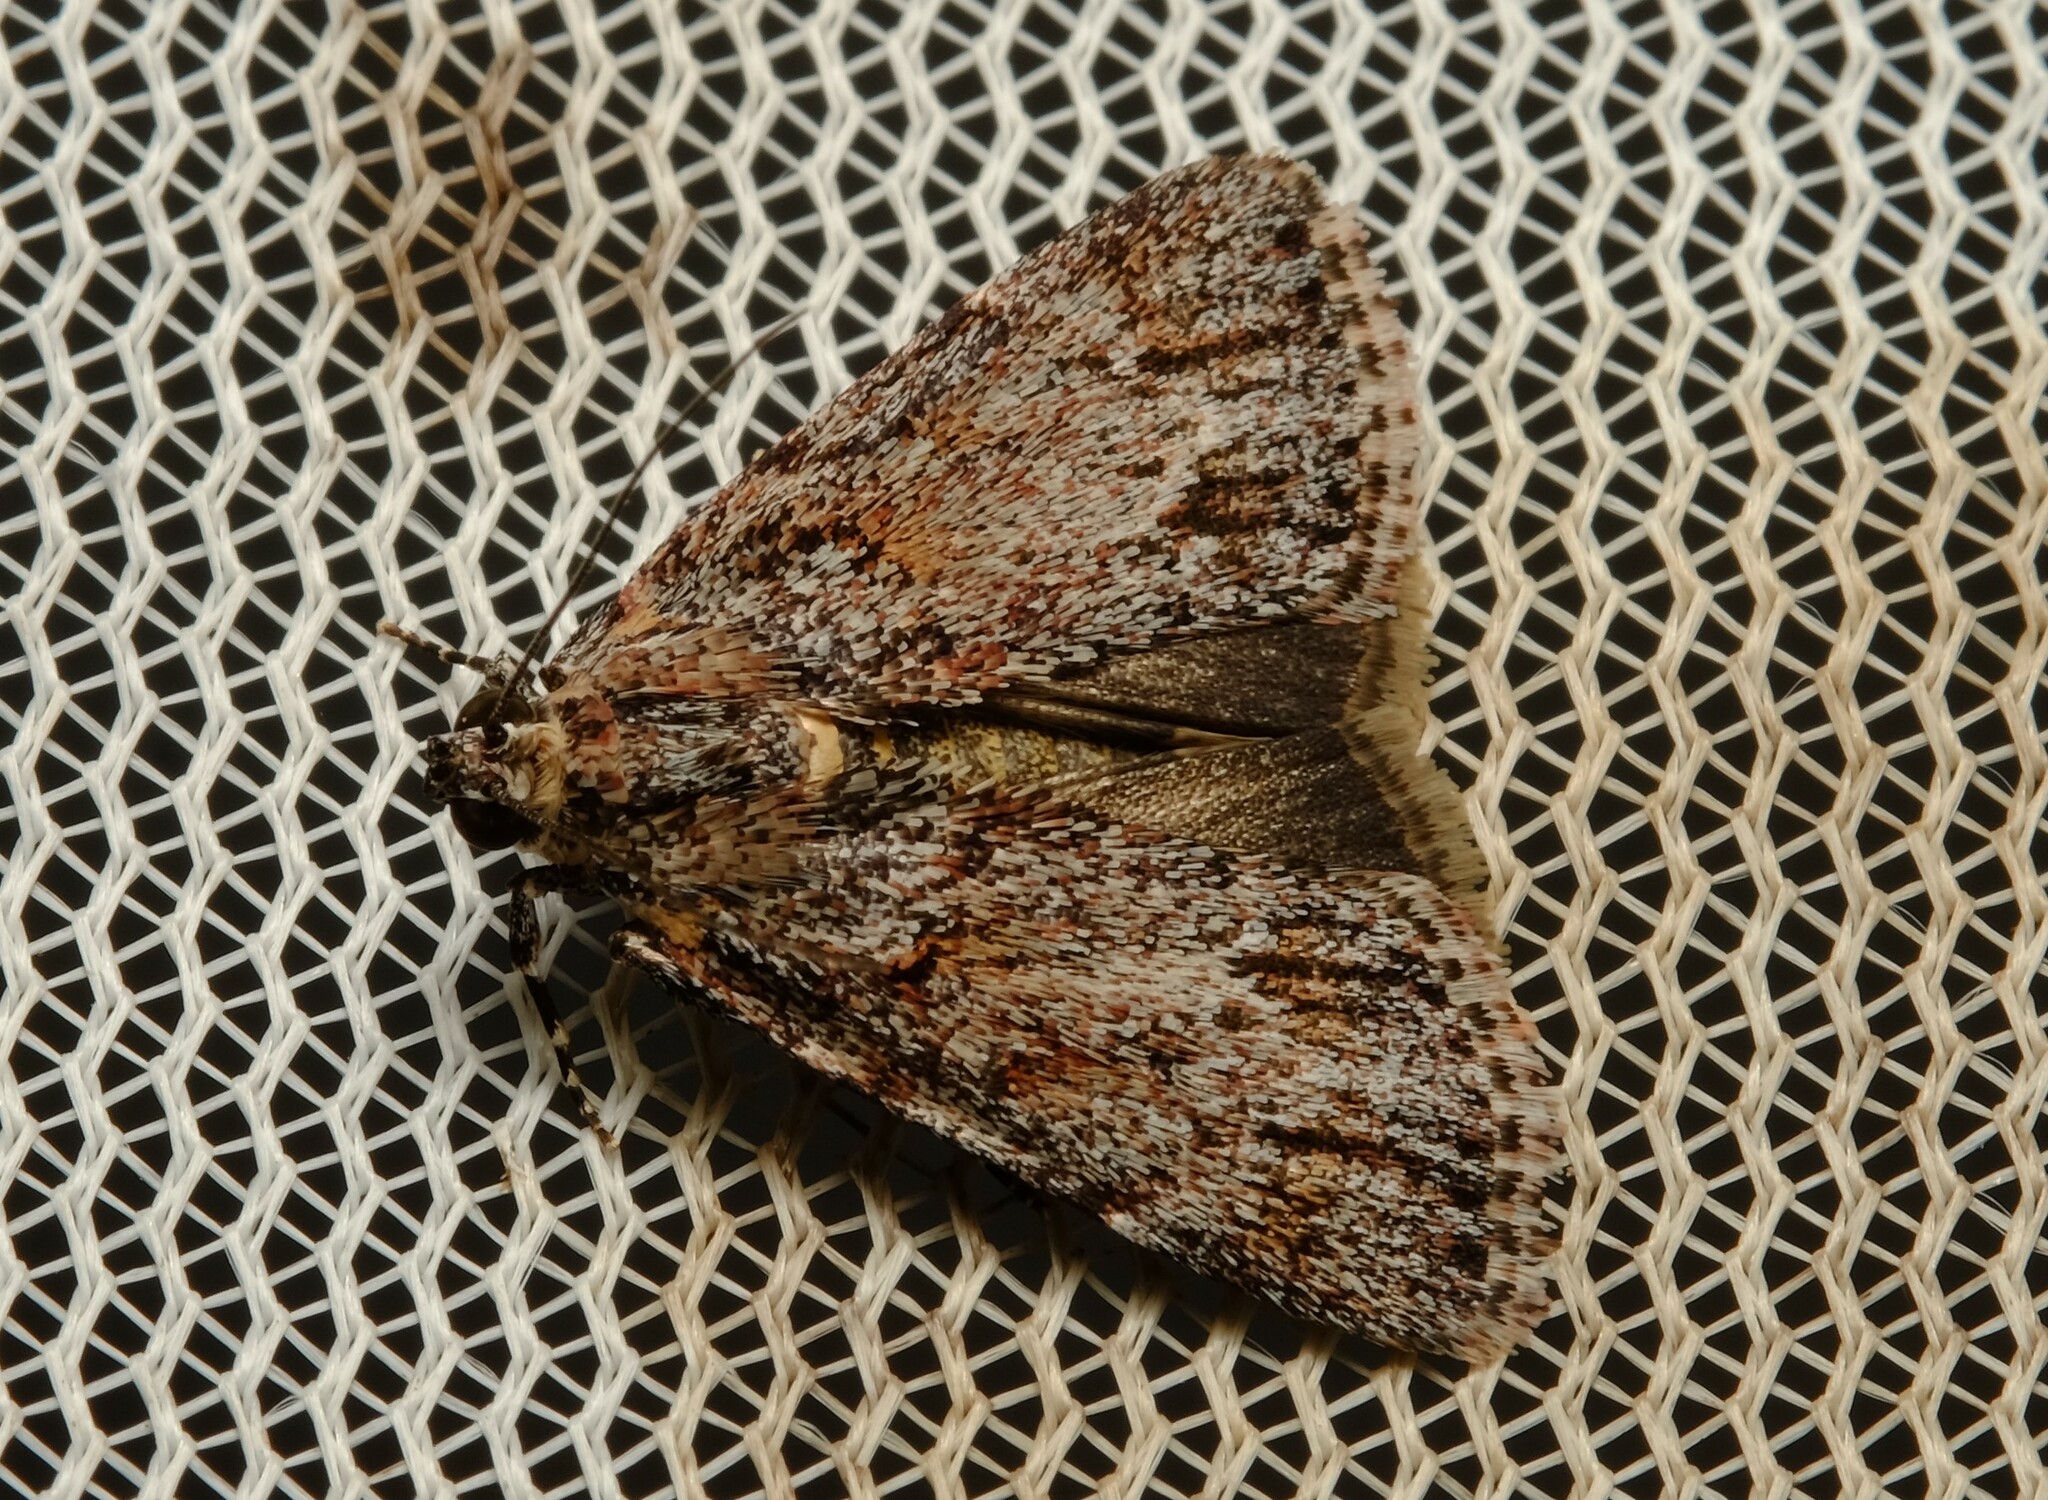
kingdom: Animalia
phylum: Arthropoda
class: Insecta
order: Lepidoptera
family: Pyralidae
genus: Spectrotrota
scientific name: Spectrotrota fimbrialis
